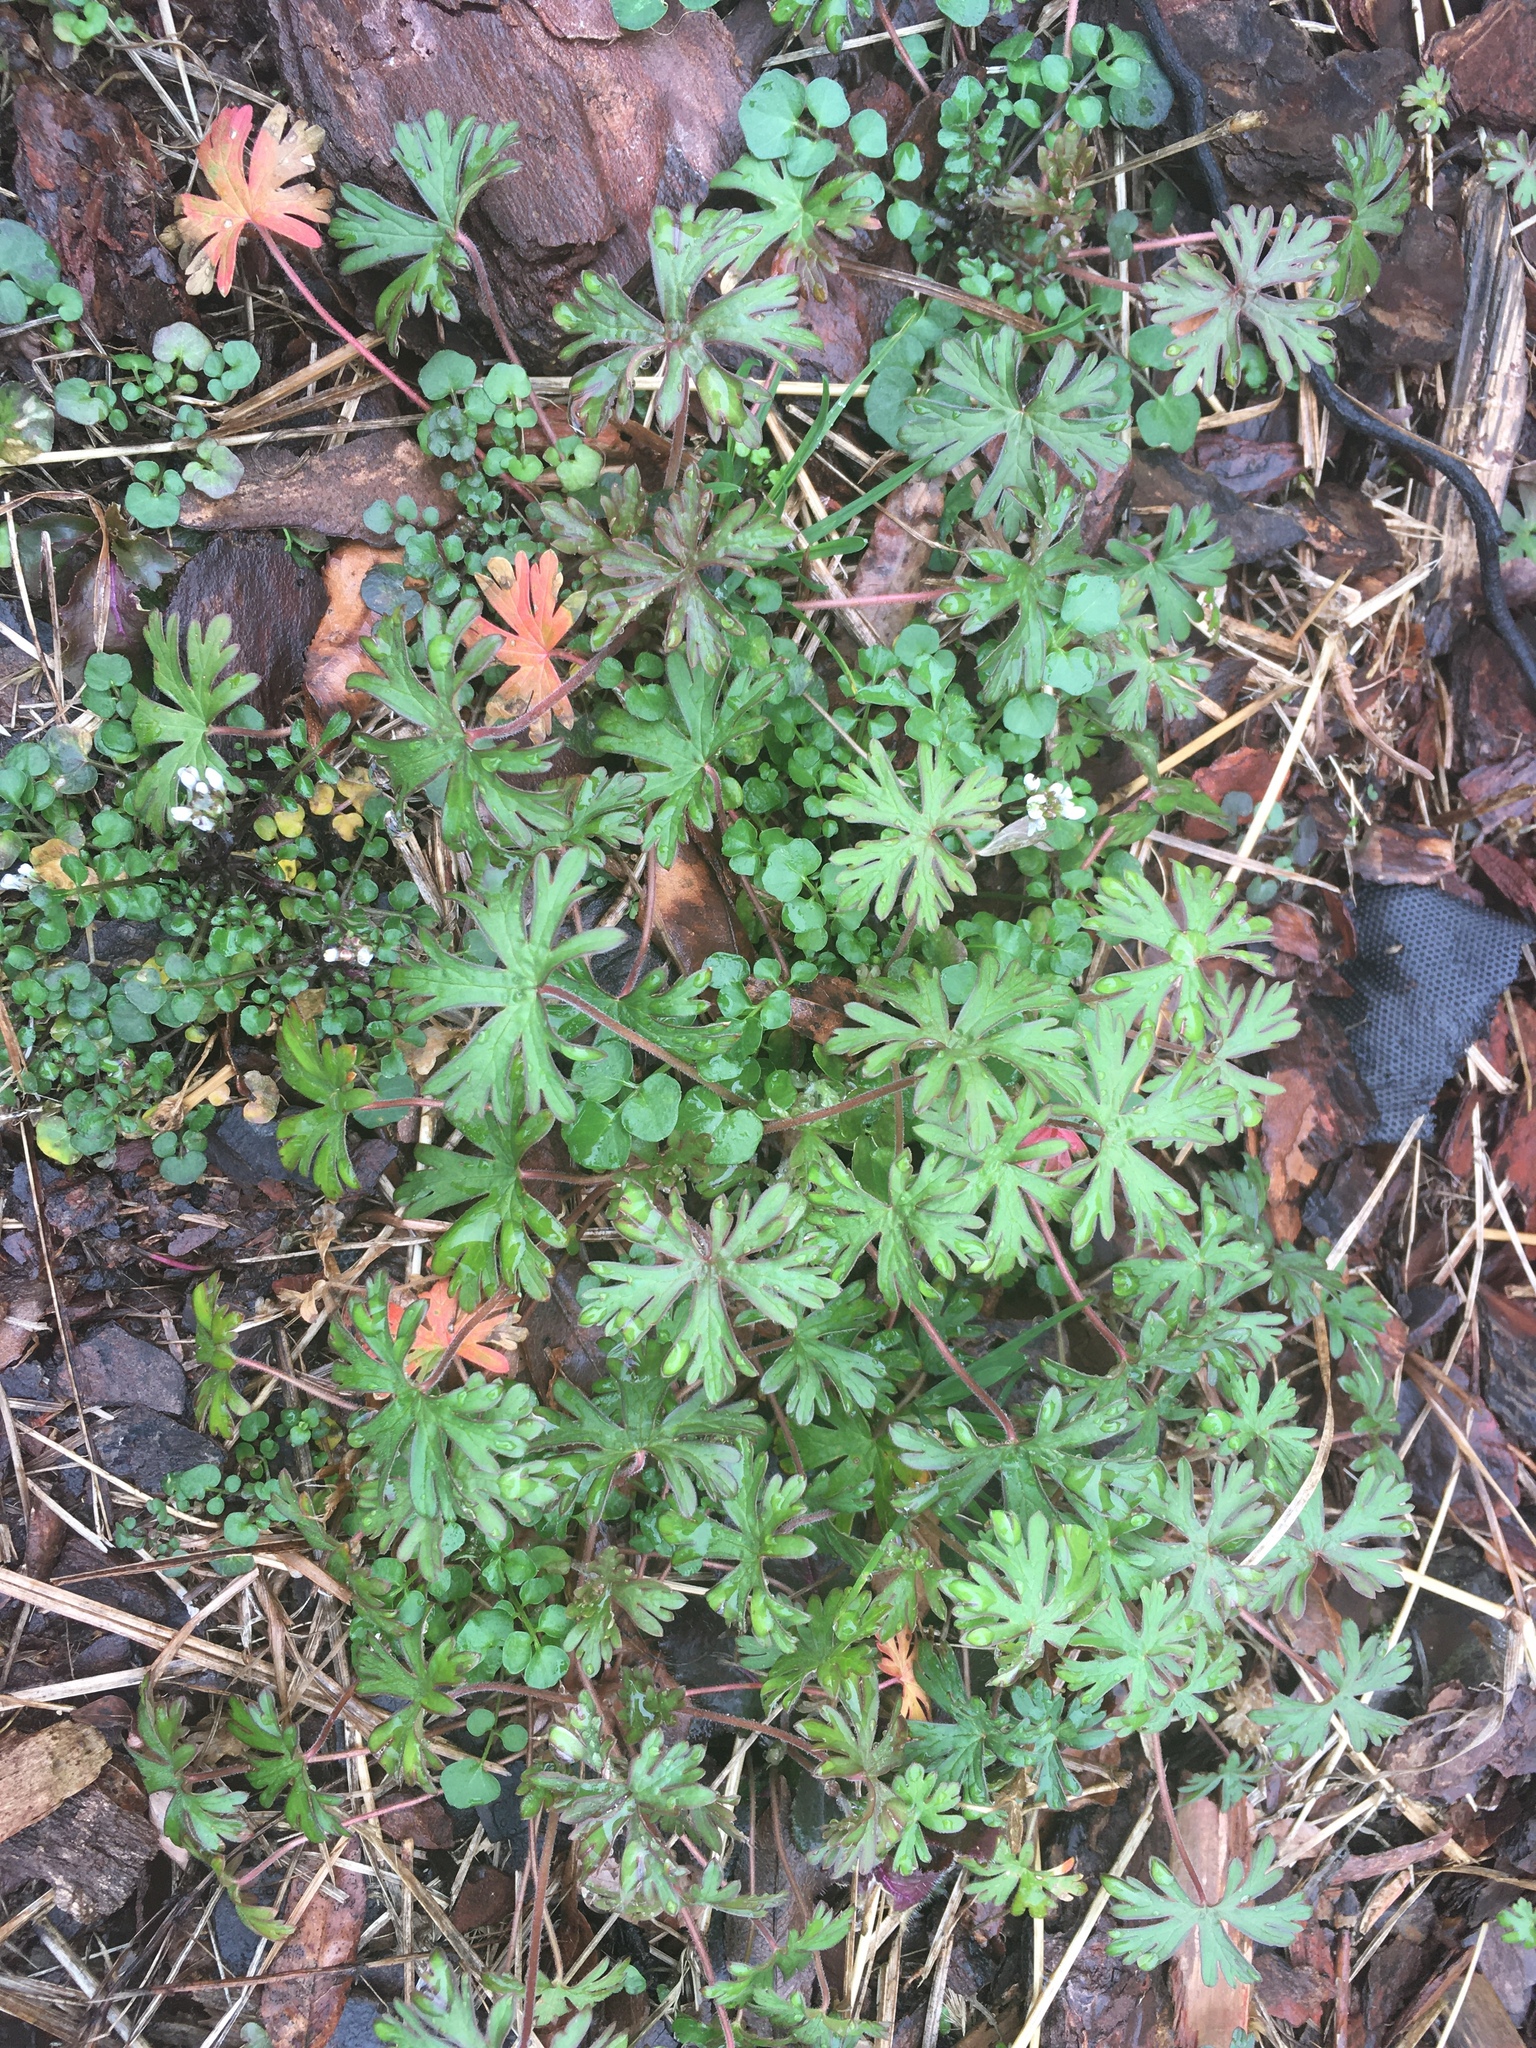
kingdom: Plantae
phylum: Tracheophyta
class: Magnoliopsida
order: Geraniales
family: Geraniaceae
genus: Geranium
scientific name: Geranium carolinianum
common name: Carolina crane's-bill
